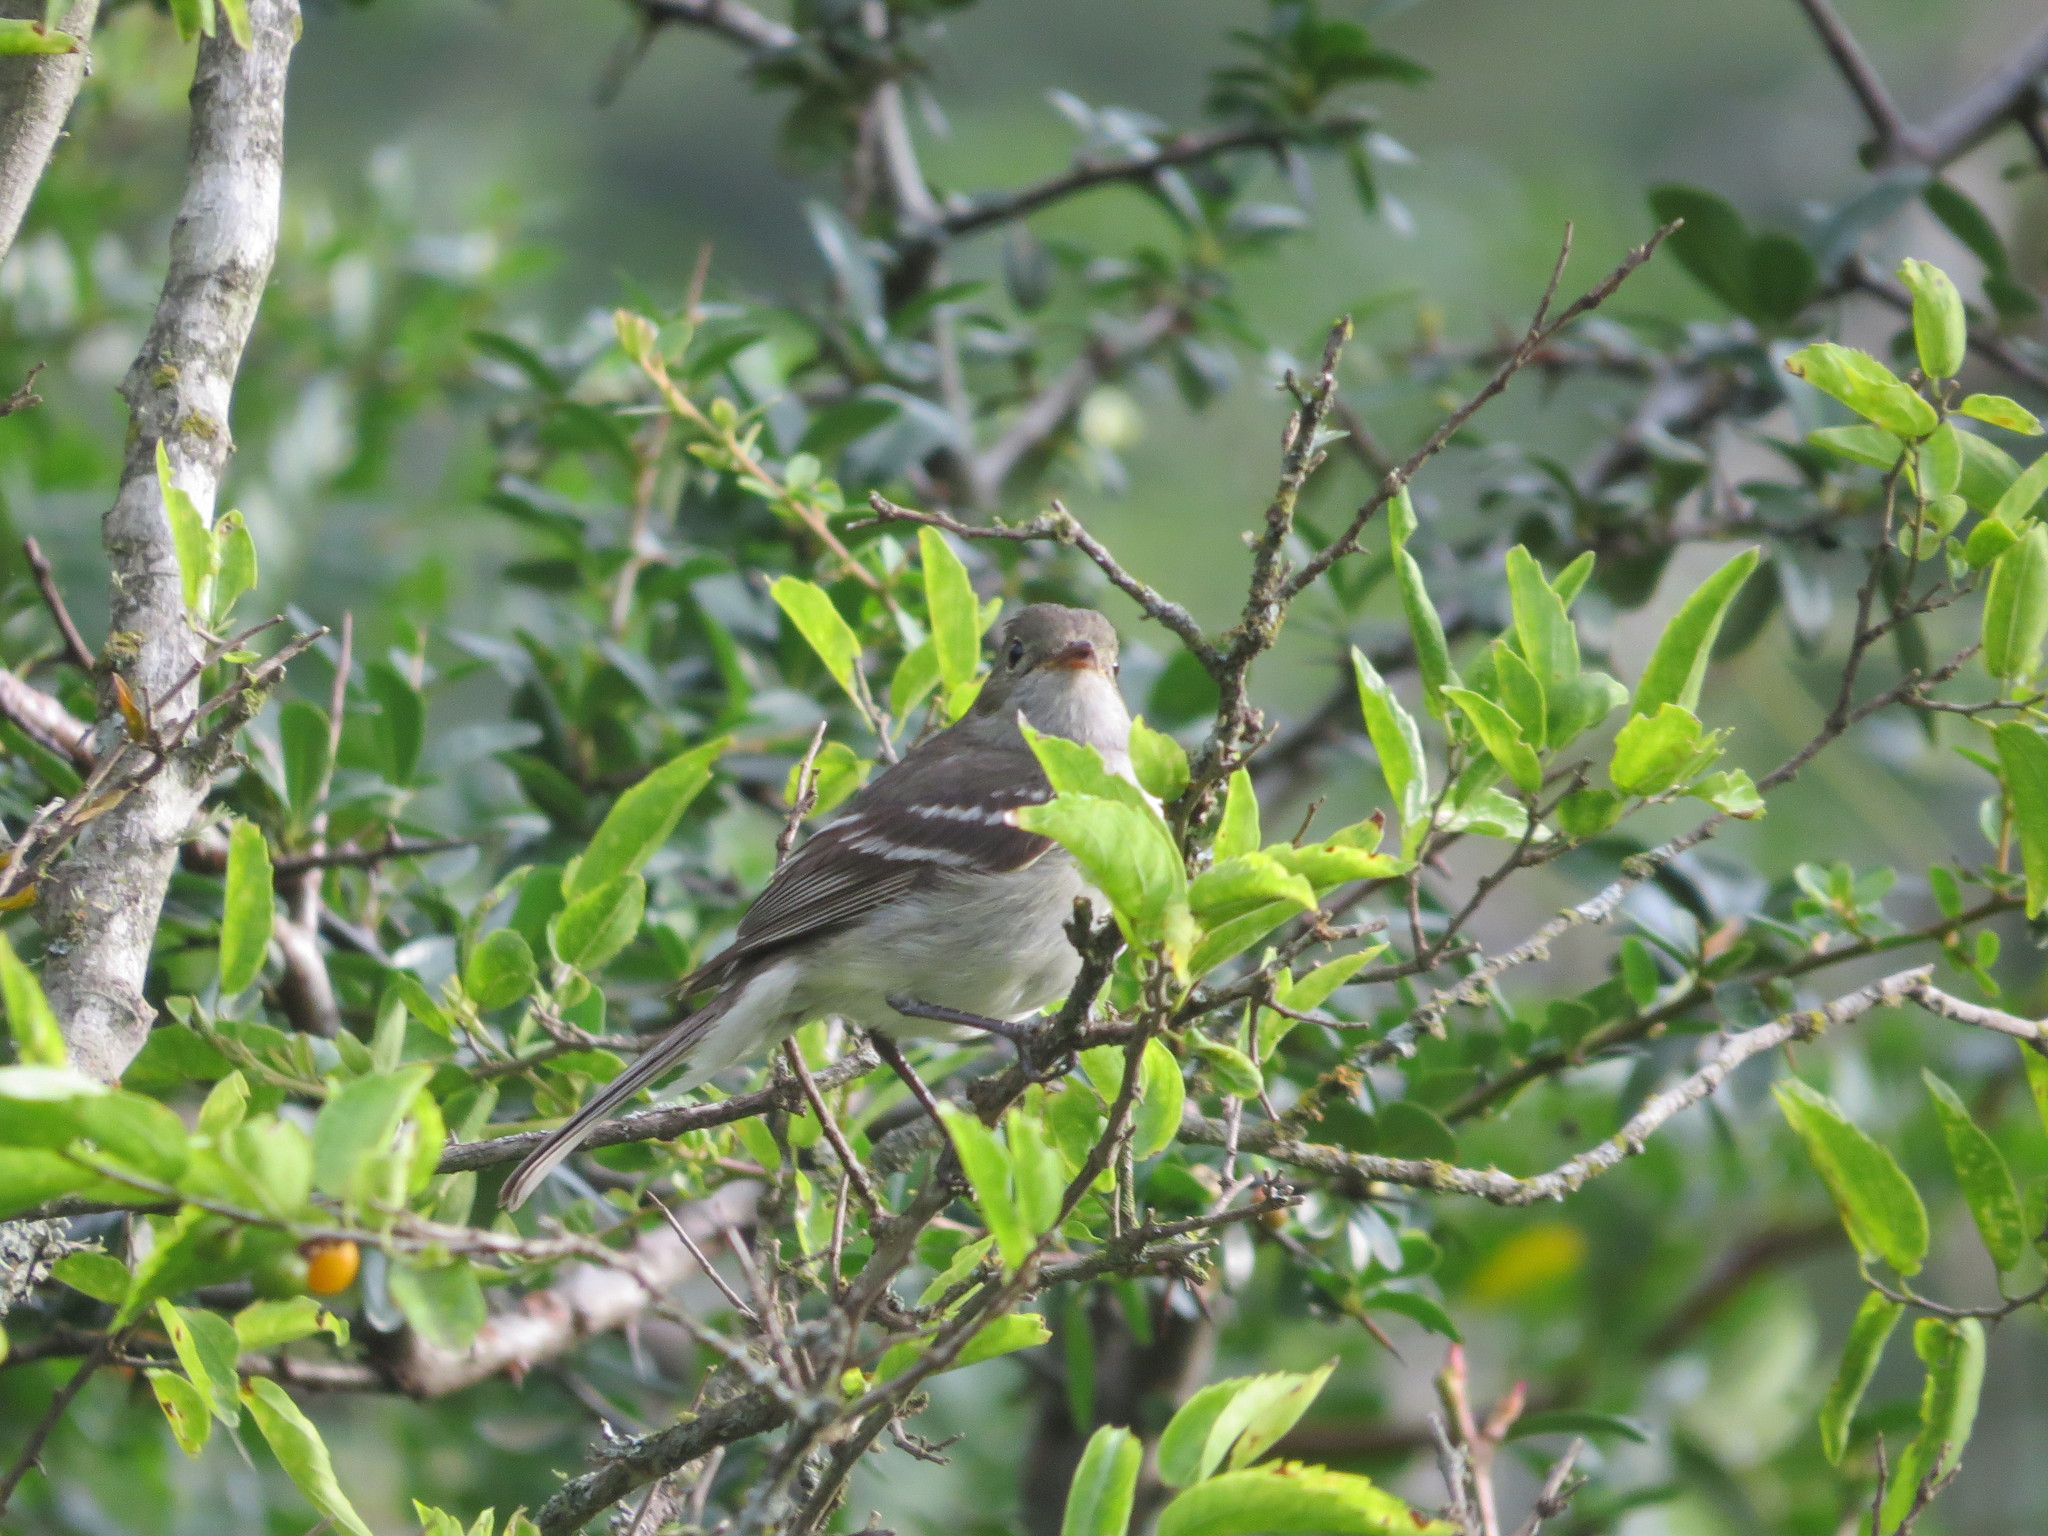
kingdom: Animalia
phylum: Chordata
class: Aves
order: Passeriformes
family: Tyrannidae
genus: Elaenia
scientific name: Elaenia parvirostris
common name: Small-billed elaenia
